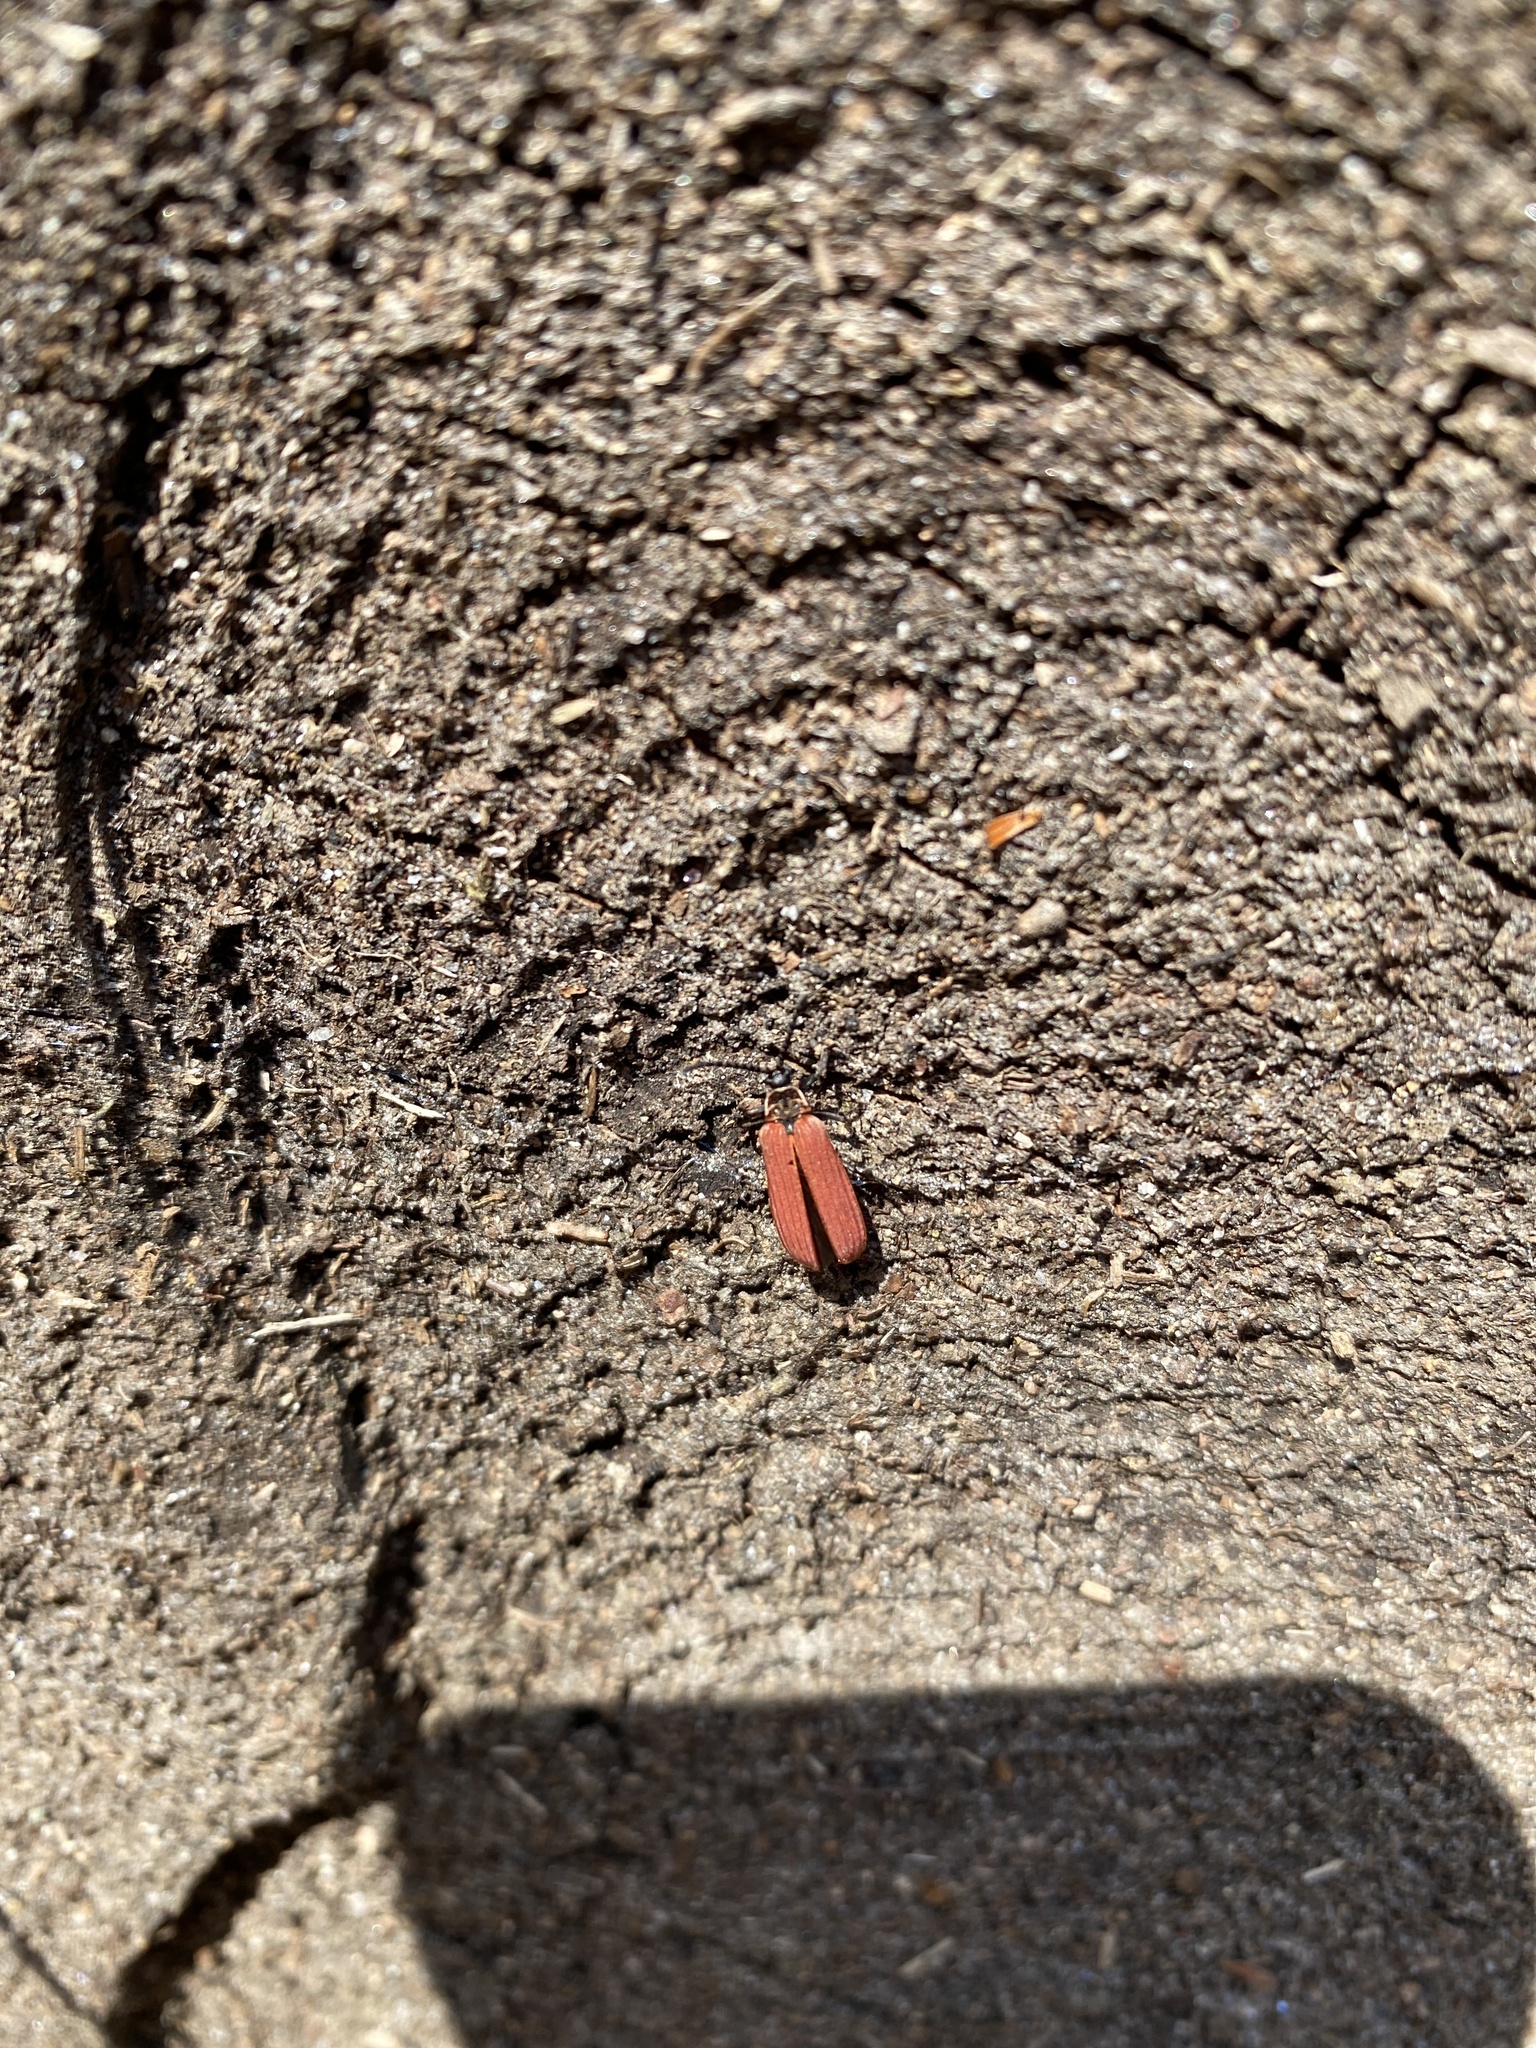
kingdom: Animalia
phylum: Arthropoda
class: Insecta
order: Coleoptera
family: Lycidae
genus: Dictyoptera
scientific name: Dictyoptera aurora
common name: Golden net-winged beetle
